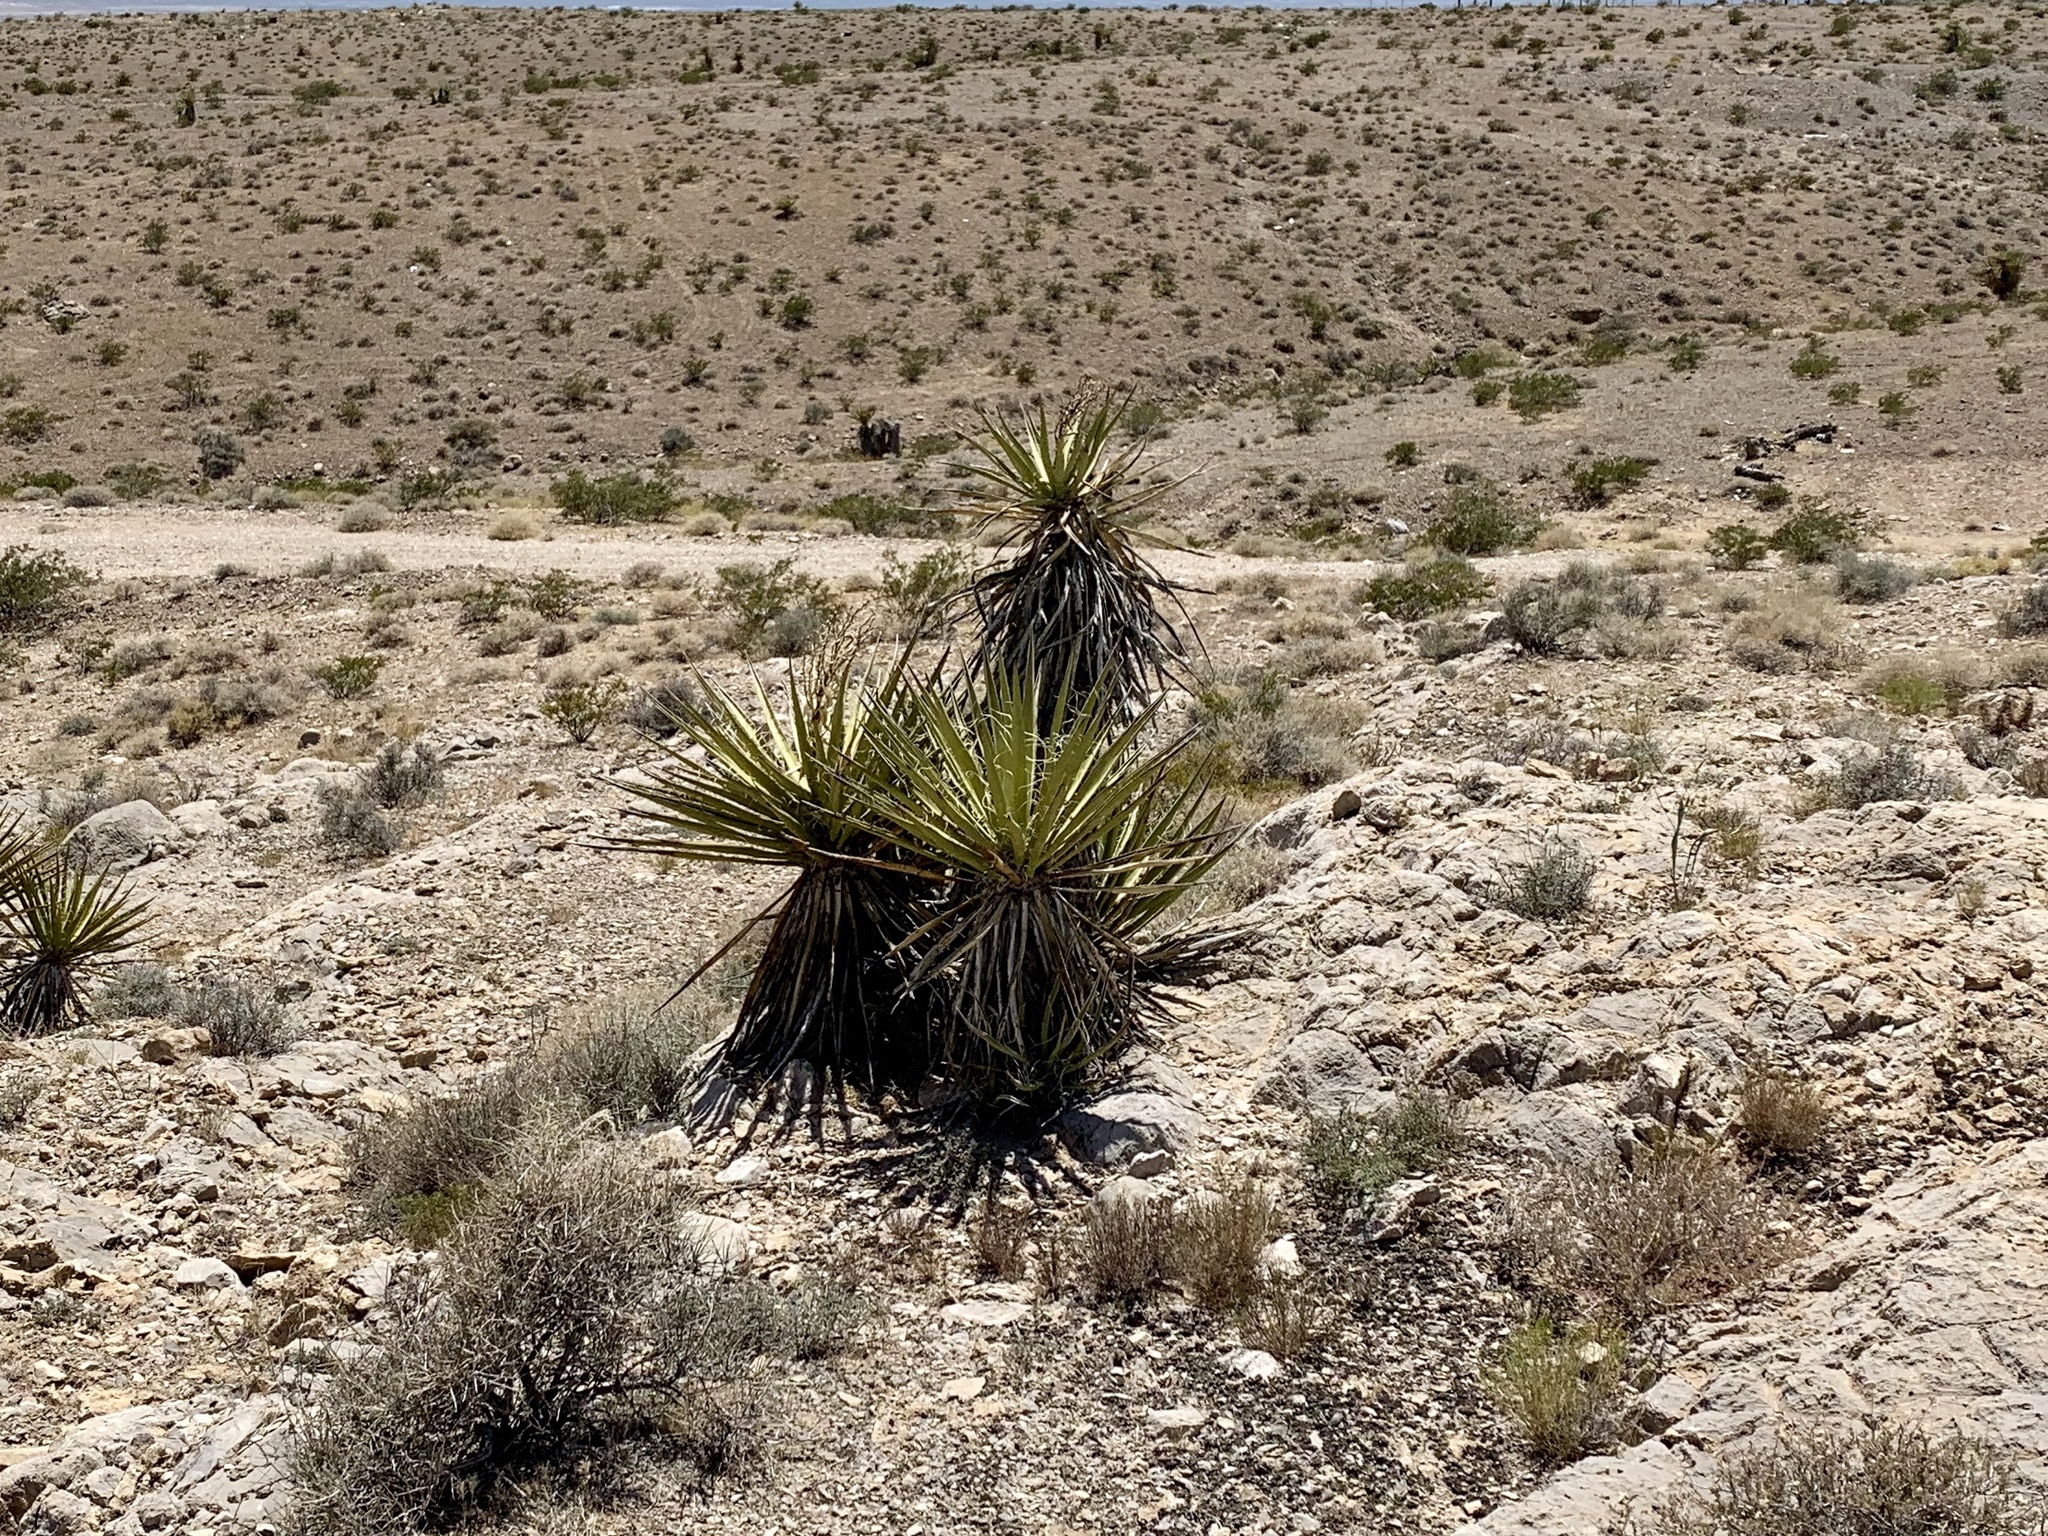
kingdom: Plantae
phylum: Tracheophyta
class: Liliopsida
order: Asparagales
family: Asparagaceae
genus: Yucca
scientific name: Yucca schidigera
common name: Mojave yucca
